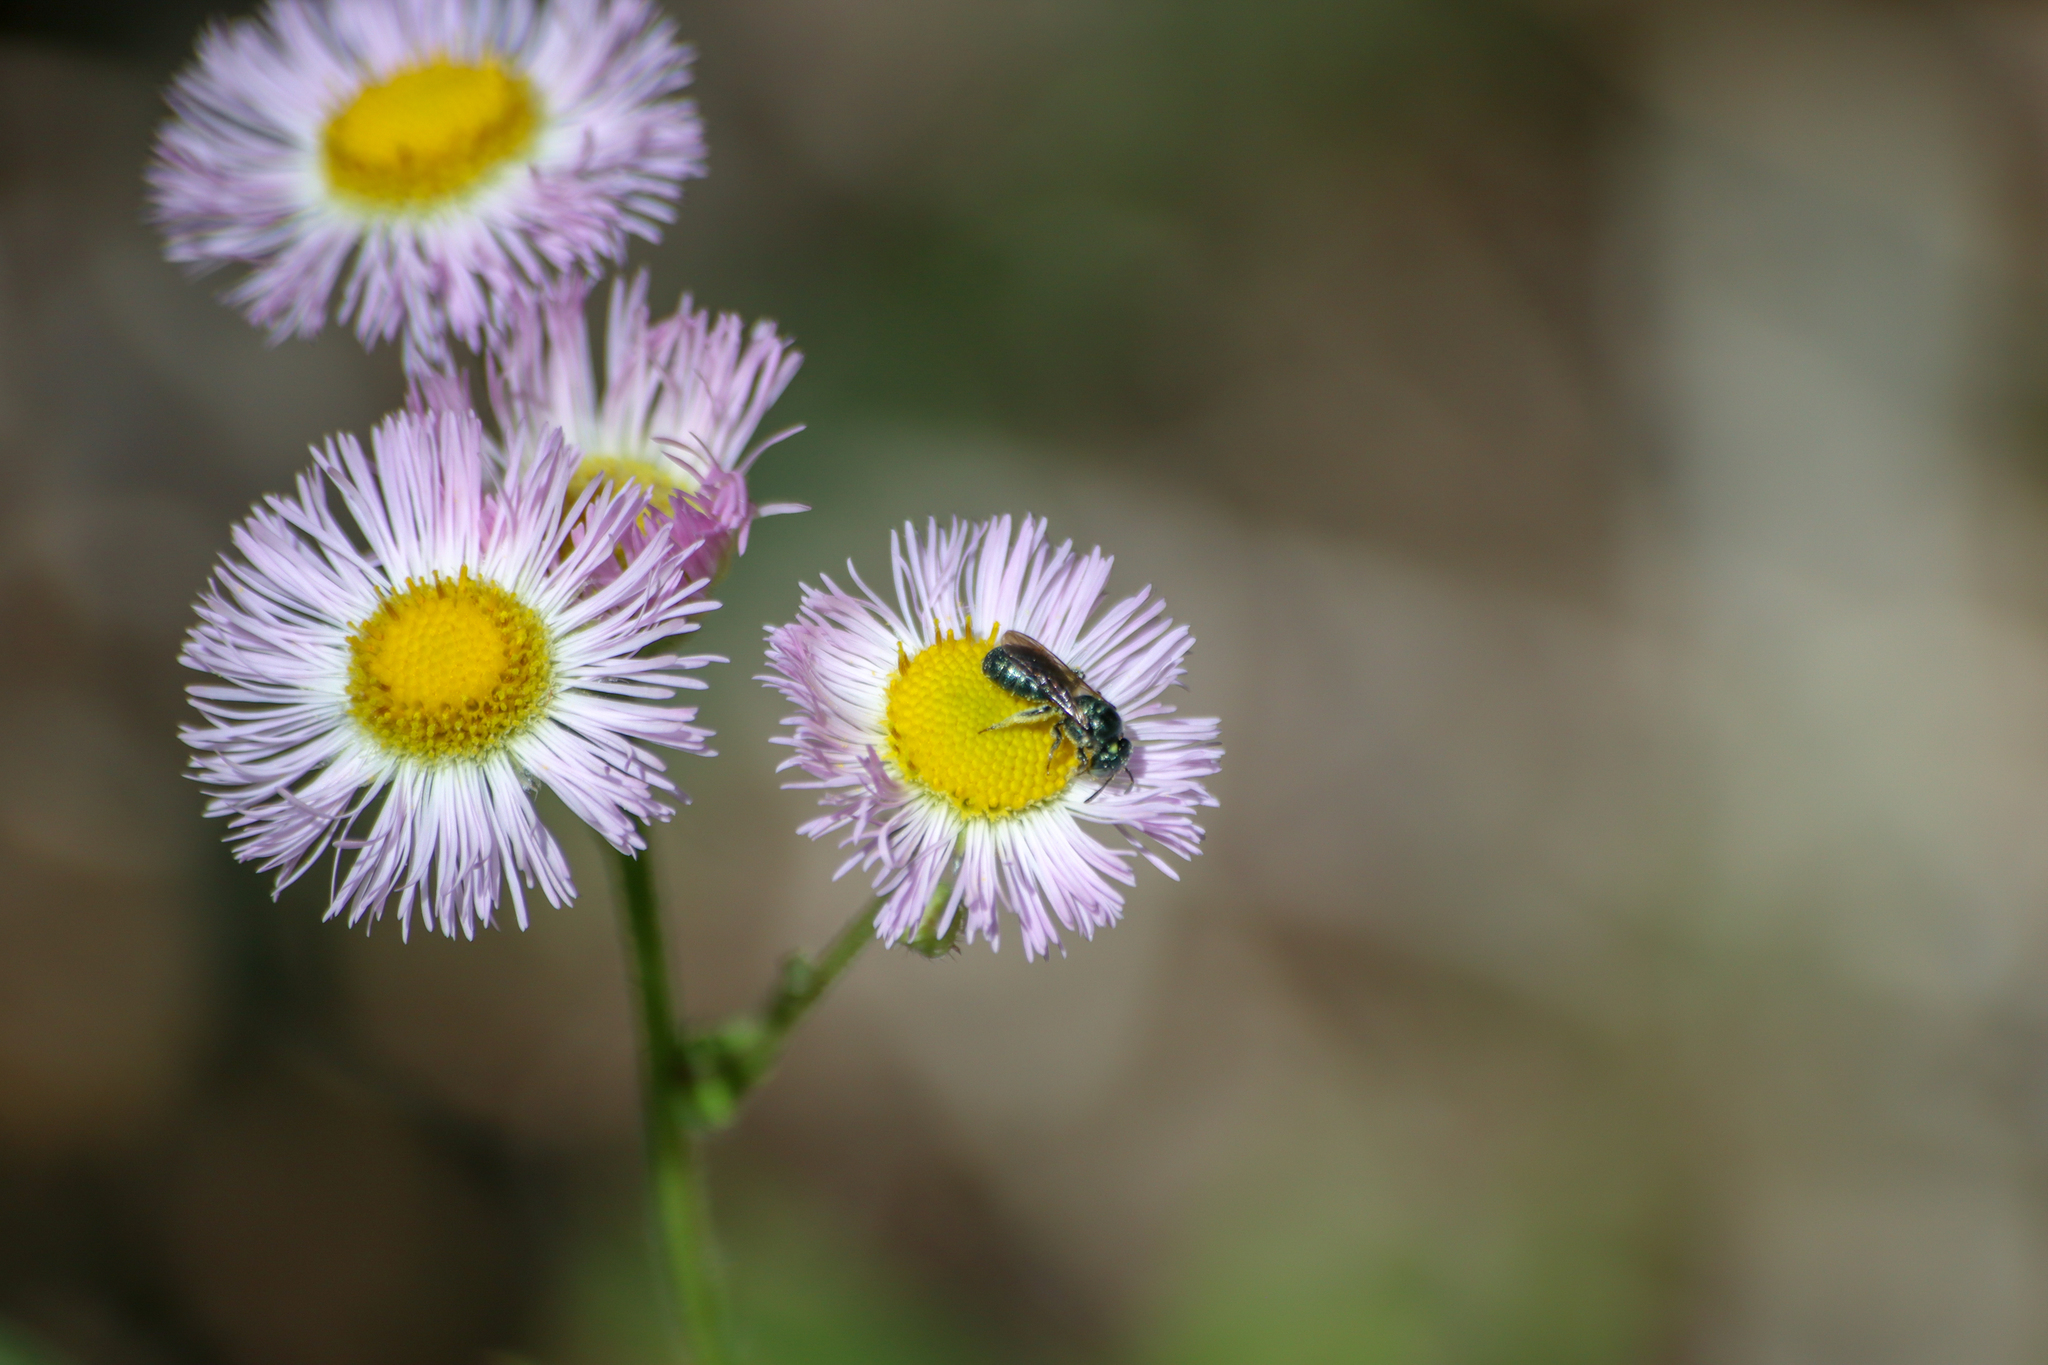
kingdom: Plantae
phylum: Tracheophyta
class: Magnoliopsida
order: Asterales
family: Asteraceae
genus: Erigeron
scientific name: Erigeron philadelphicus
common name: Robin's-plantain
